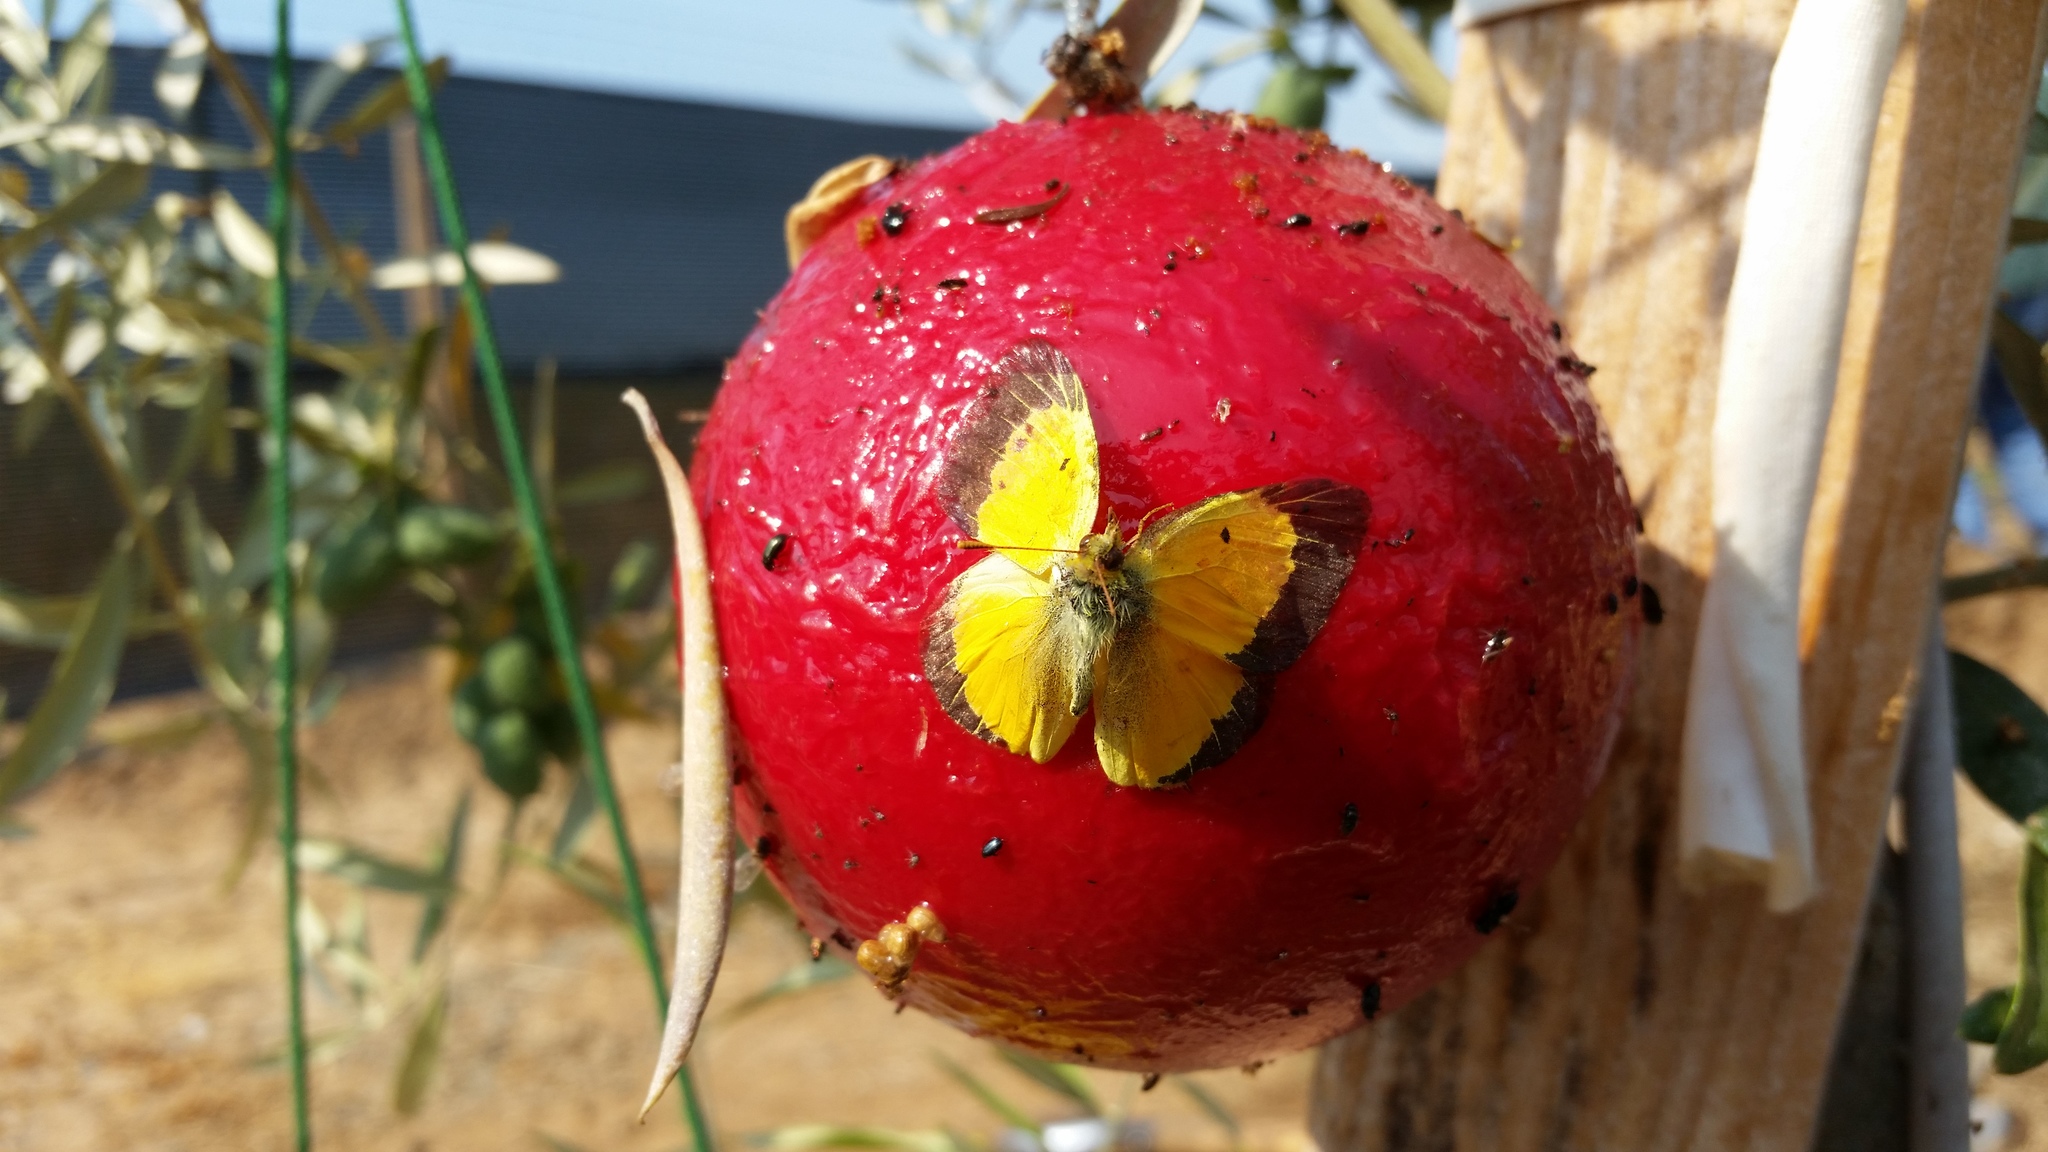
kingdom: Animalia
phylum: Arthropoda
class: Insecta
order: Lepidoptera
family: Pieridae
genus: Colias
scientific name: Colias eurytheme
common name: Alfalfa butterfly
